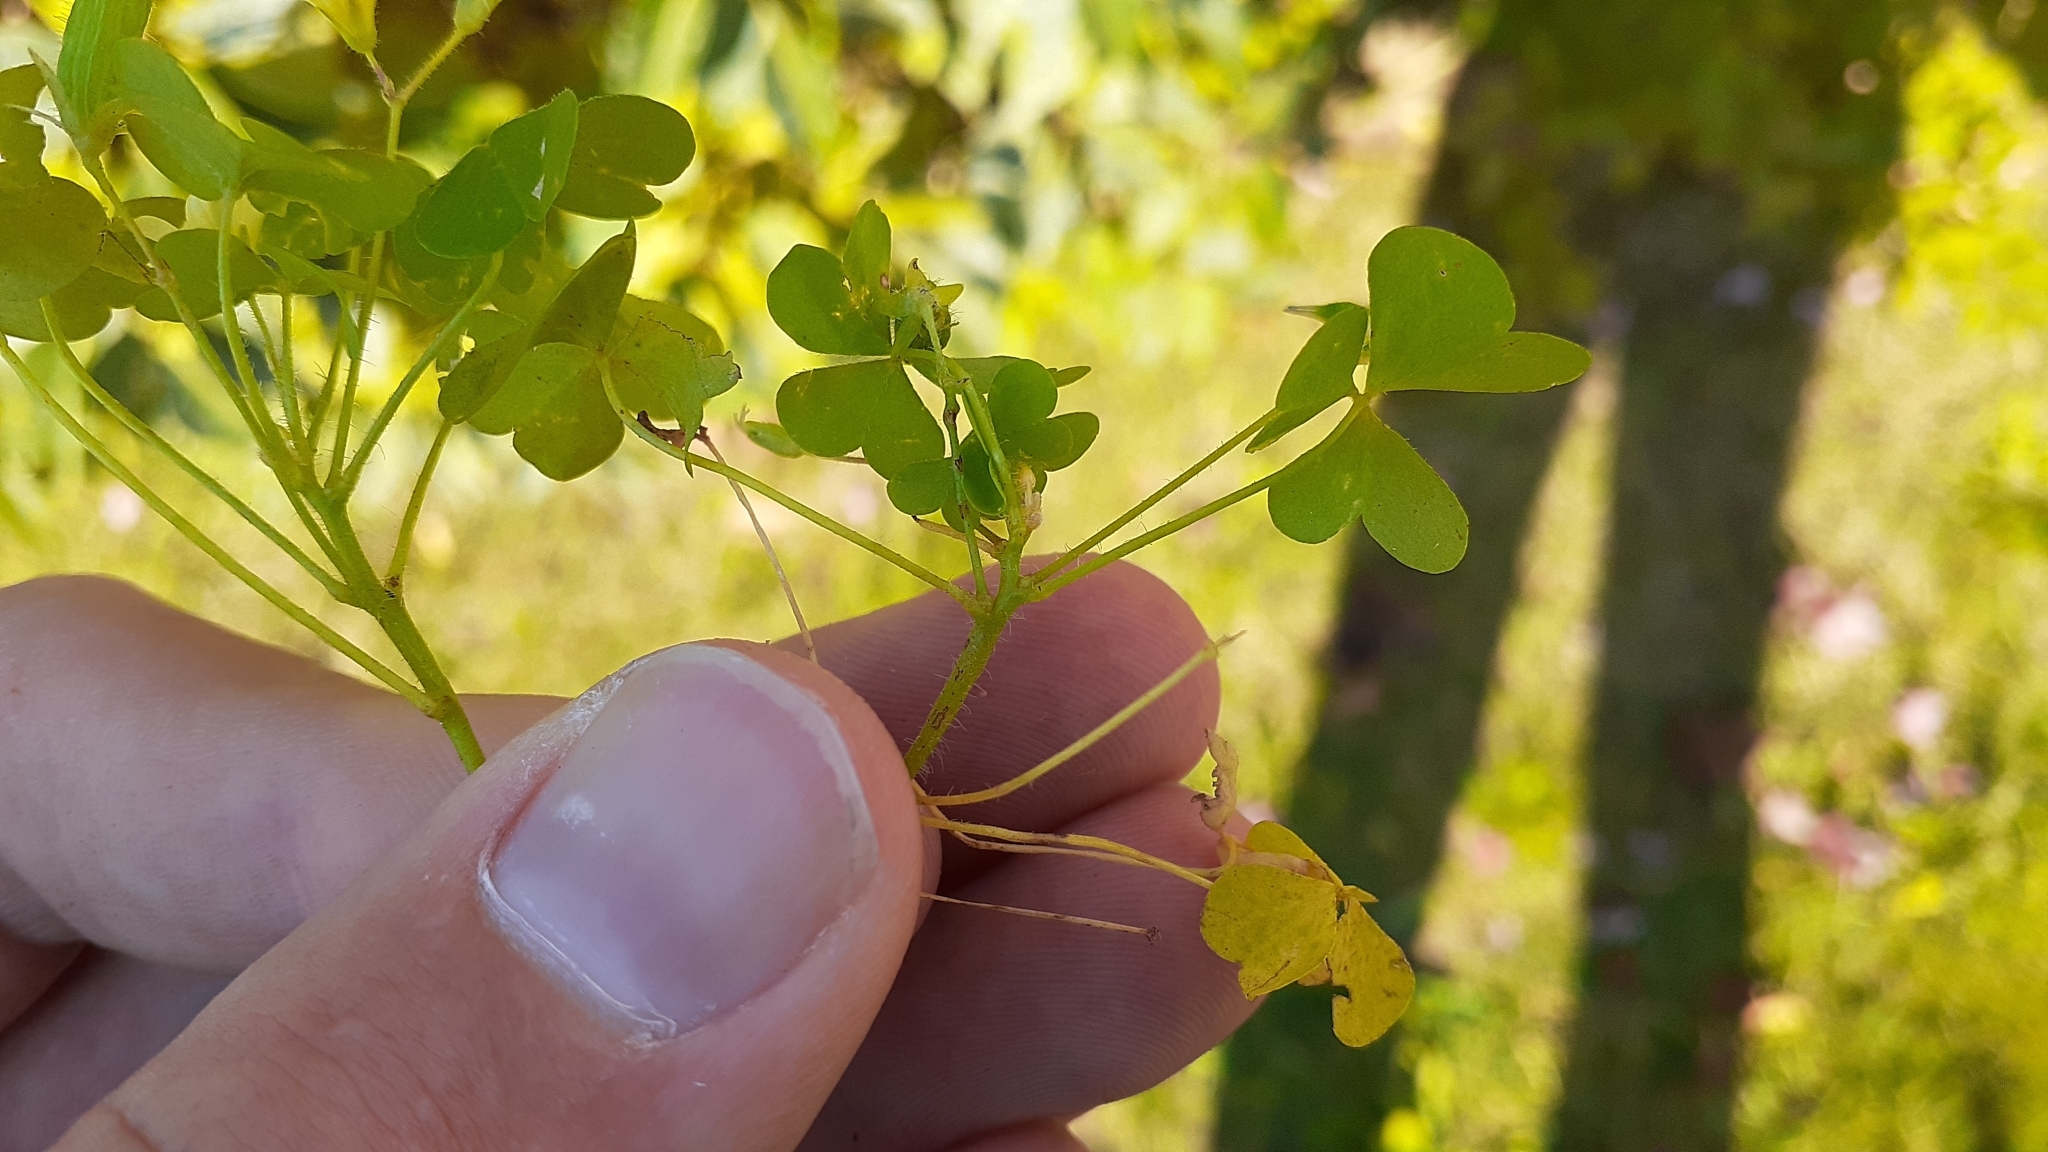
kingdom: Plantae
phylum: Tracheophyta
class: Magnoliopsida
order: Oxalidales
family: Oxalidaceae
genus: Oxalis
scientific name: Oxalis stricta
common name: Upright yellow-sorrel
